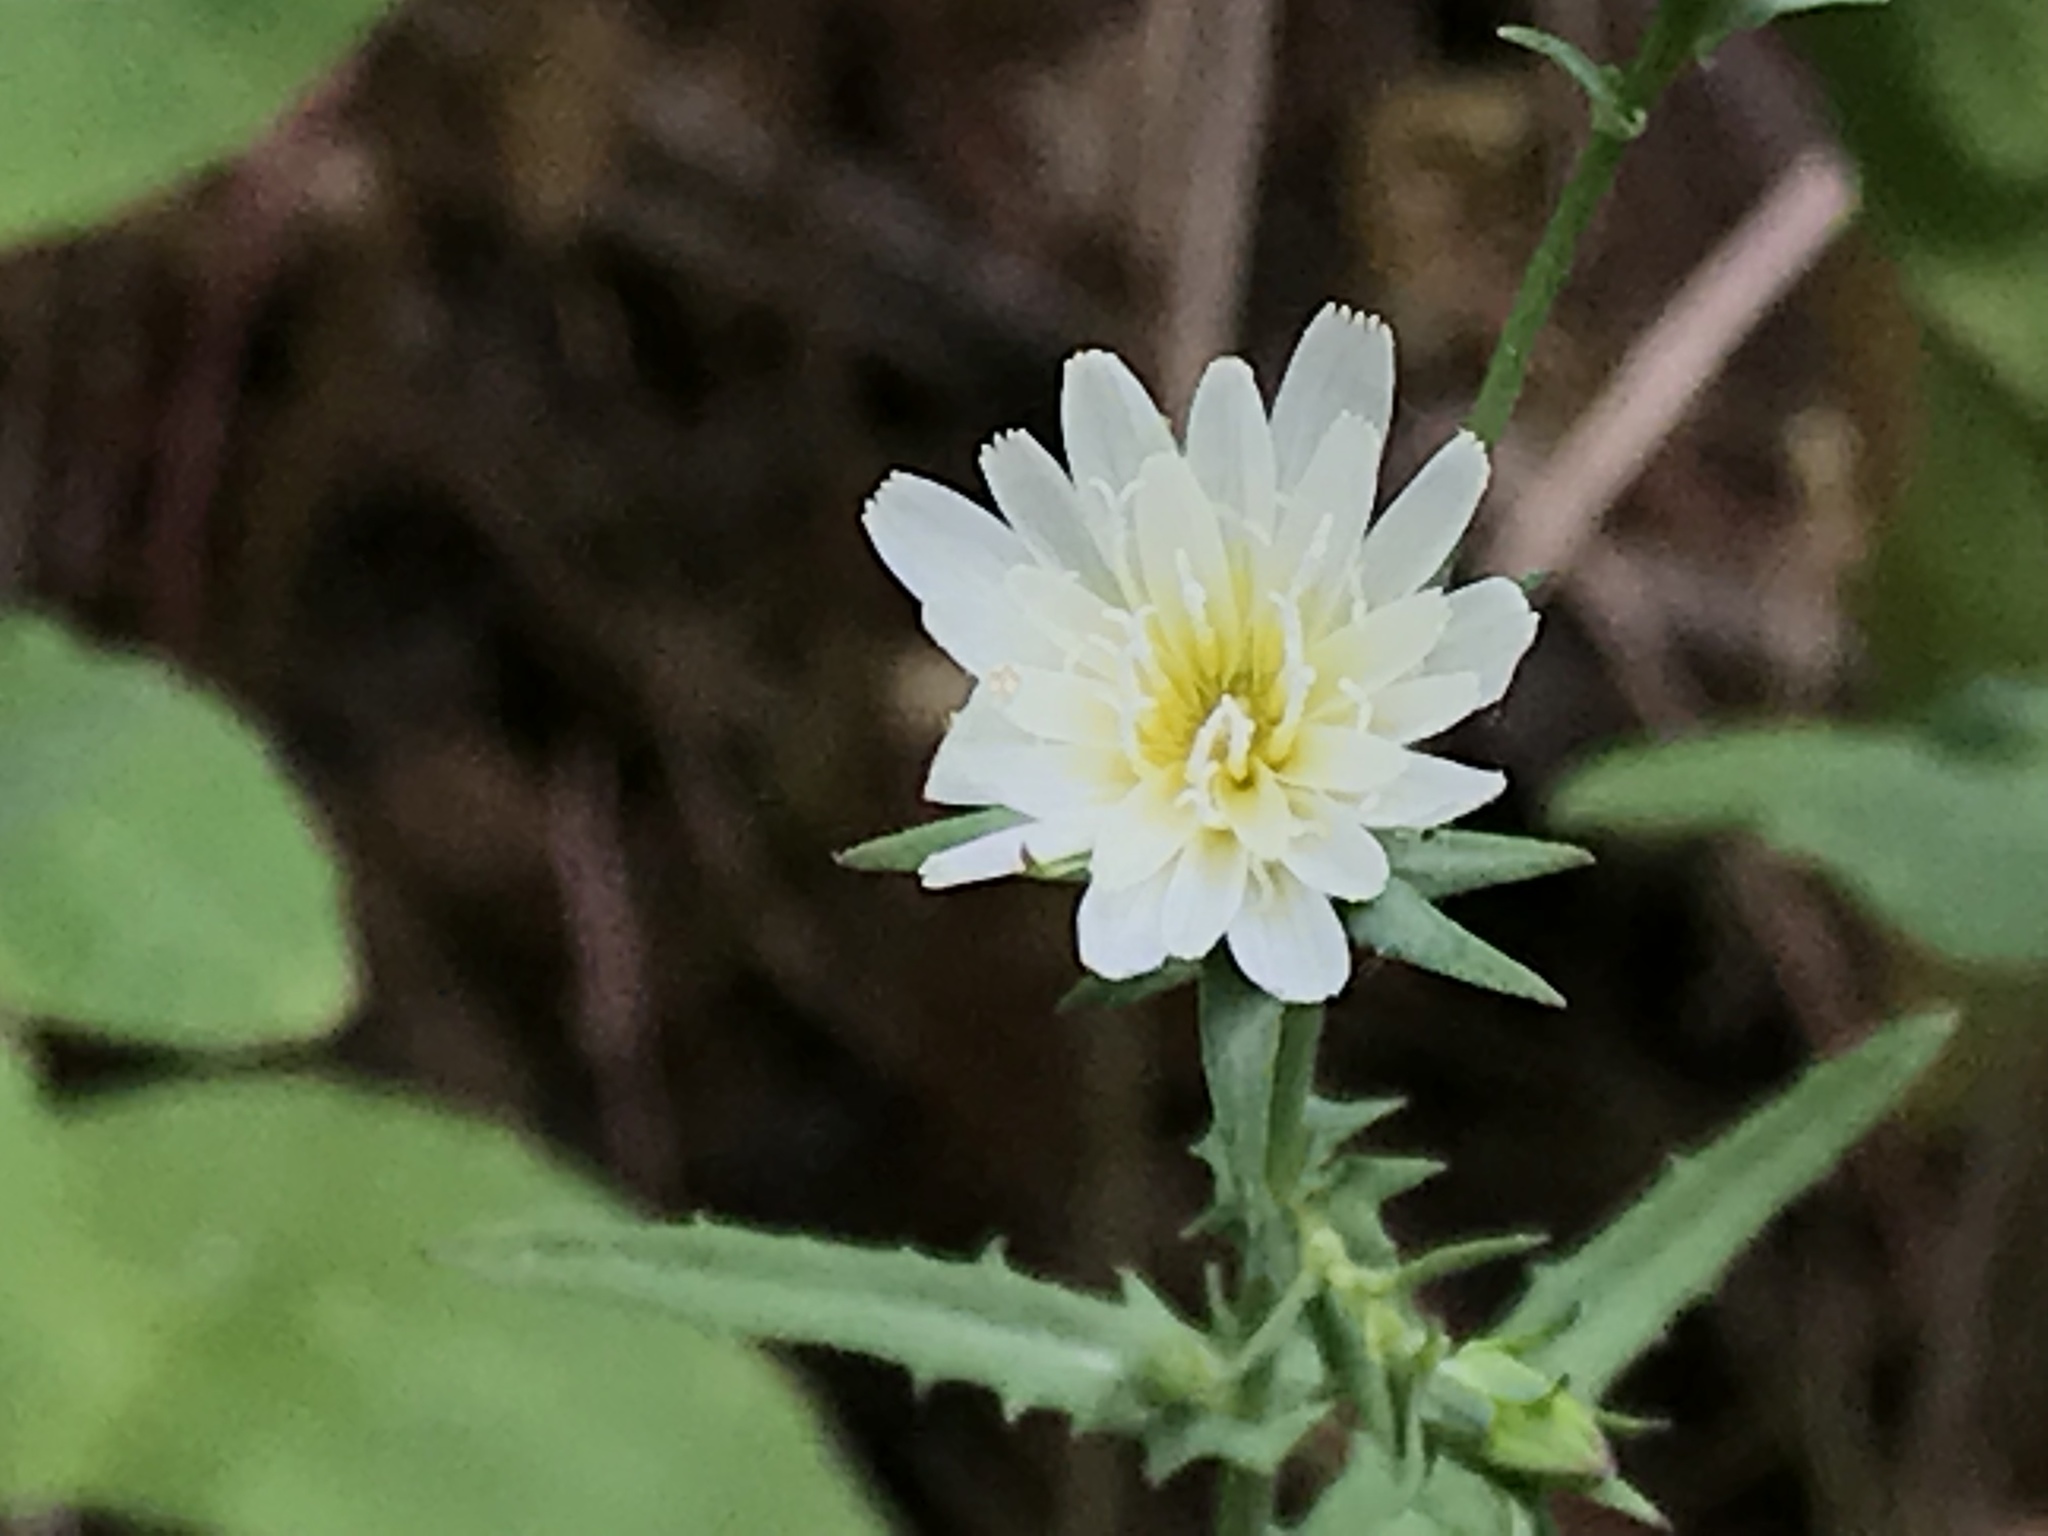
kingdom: Plantae
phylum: Tracheophyta
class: Magnoliopsida
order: Asterales
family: Asteraceae
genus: Rafinesquia
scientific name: Rafinesquia californica
